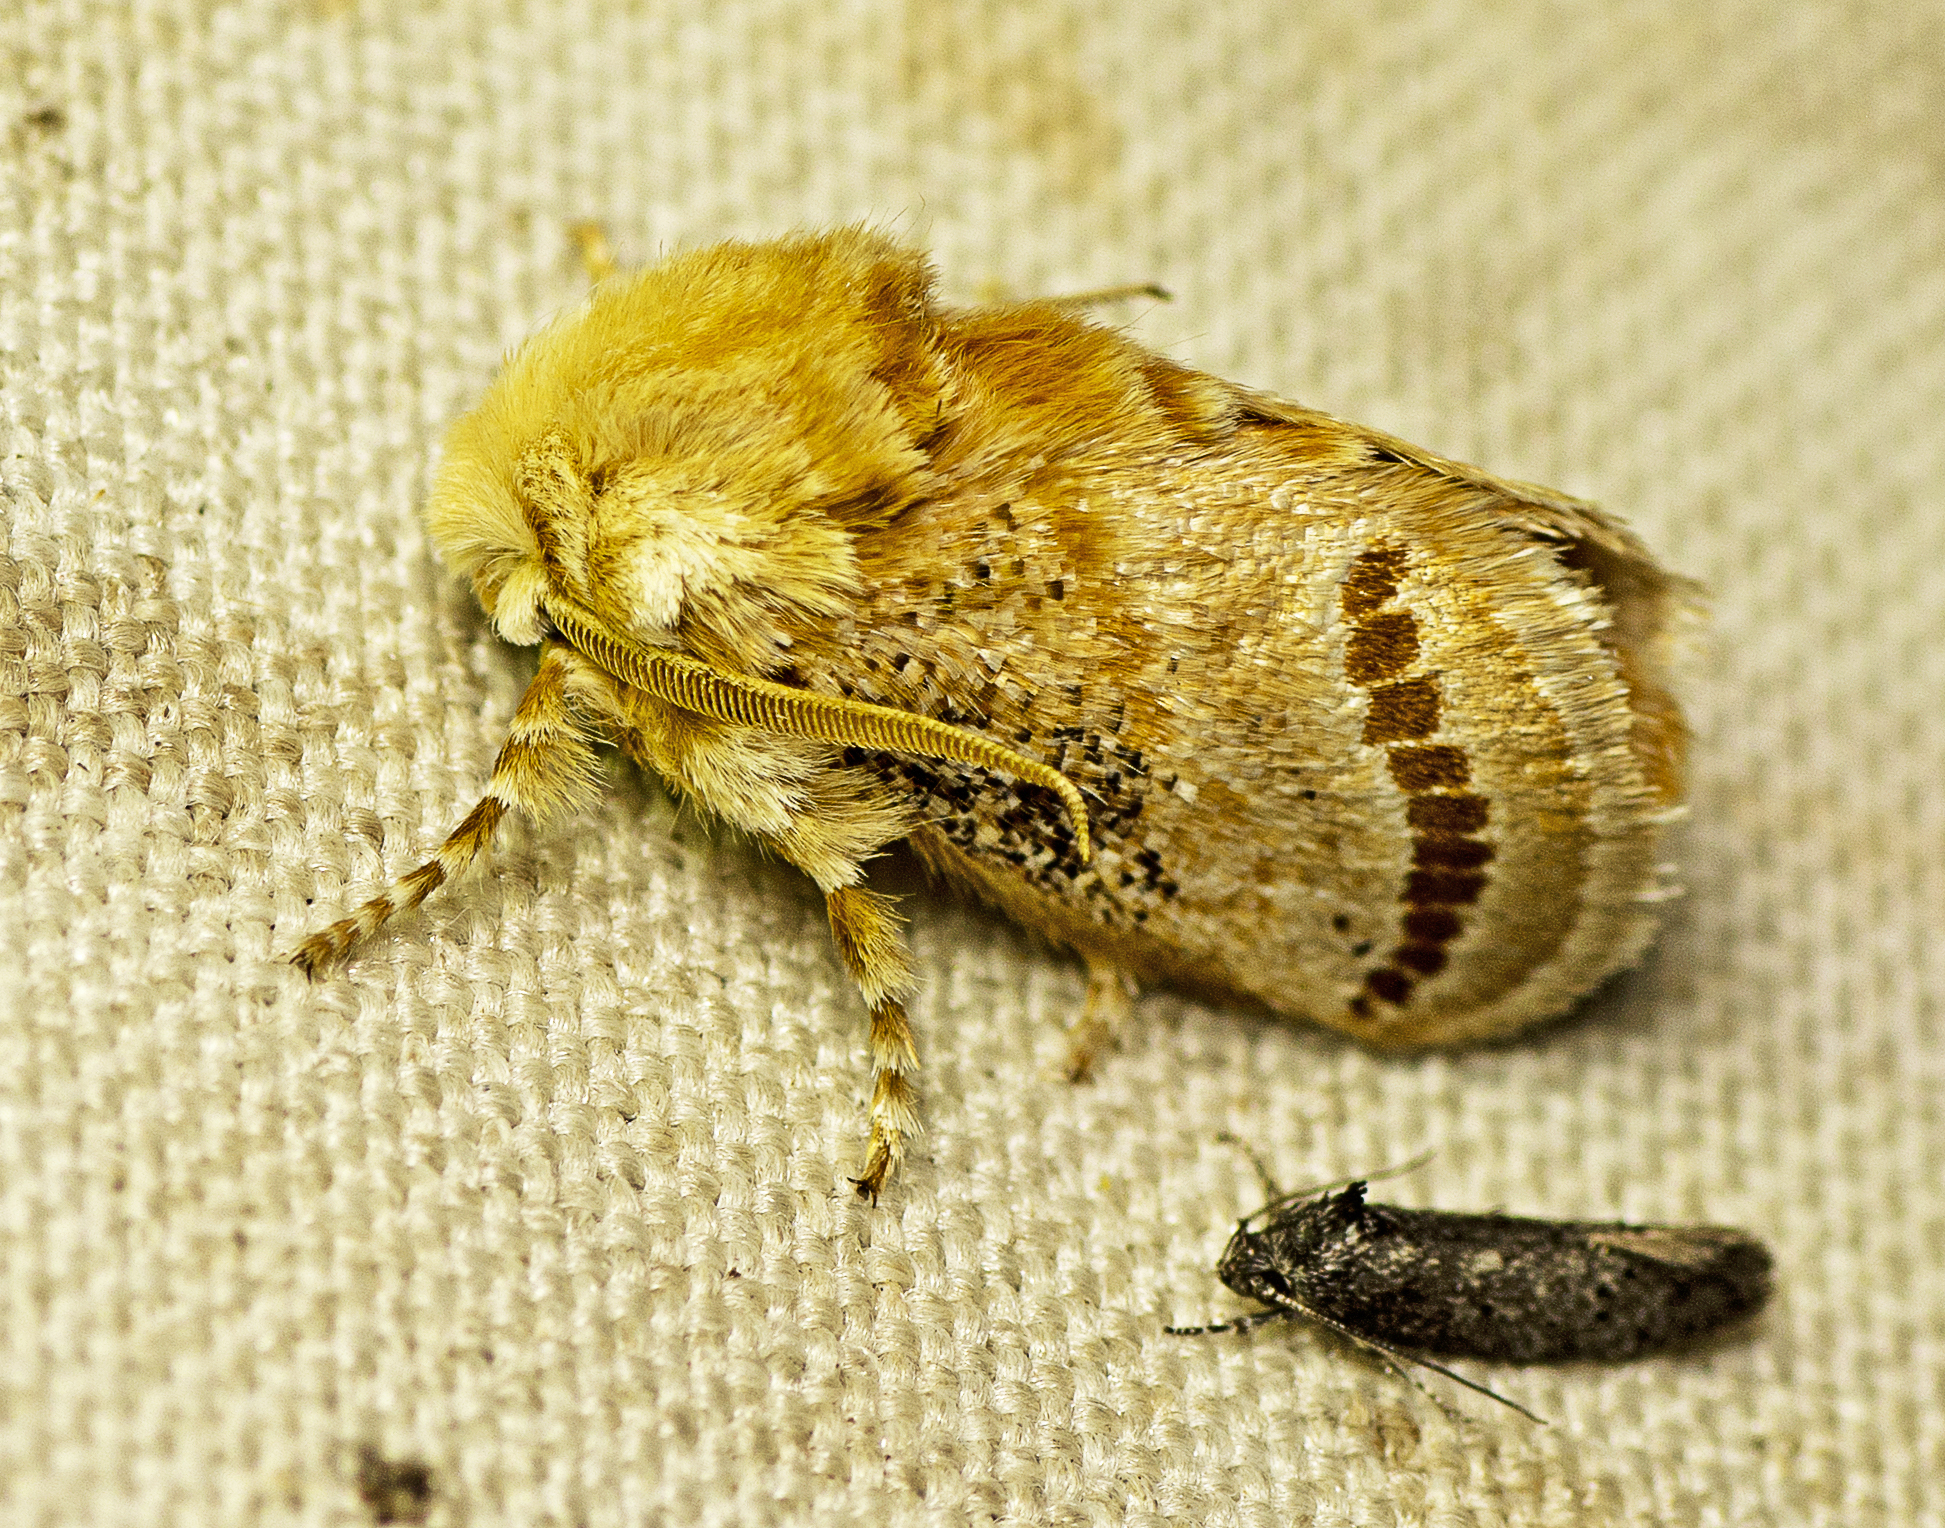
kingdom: Animalia
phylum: Arthropoda
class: Insecta
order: Lepidoptera
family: Limacodidae
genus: Calcarifera
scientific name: Calcarifera ordinata
